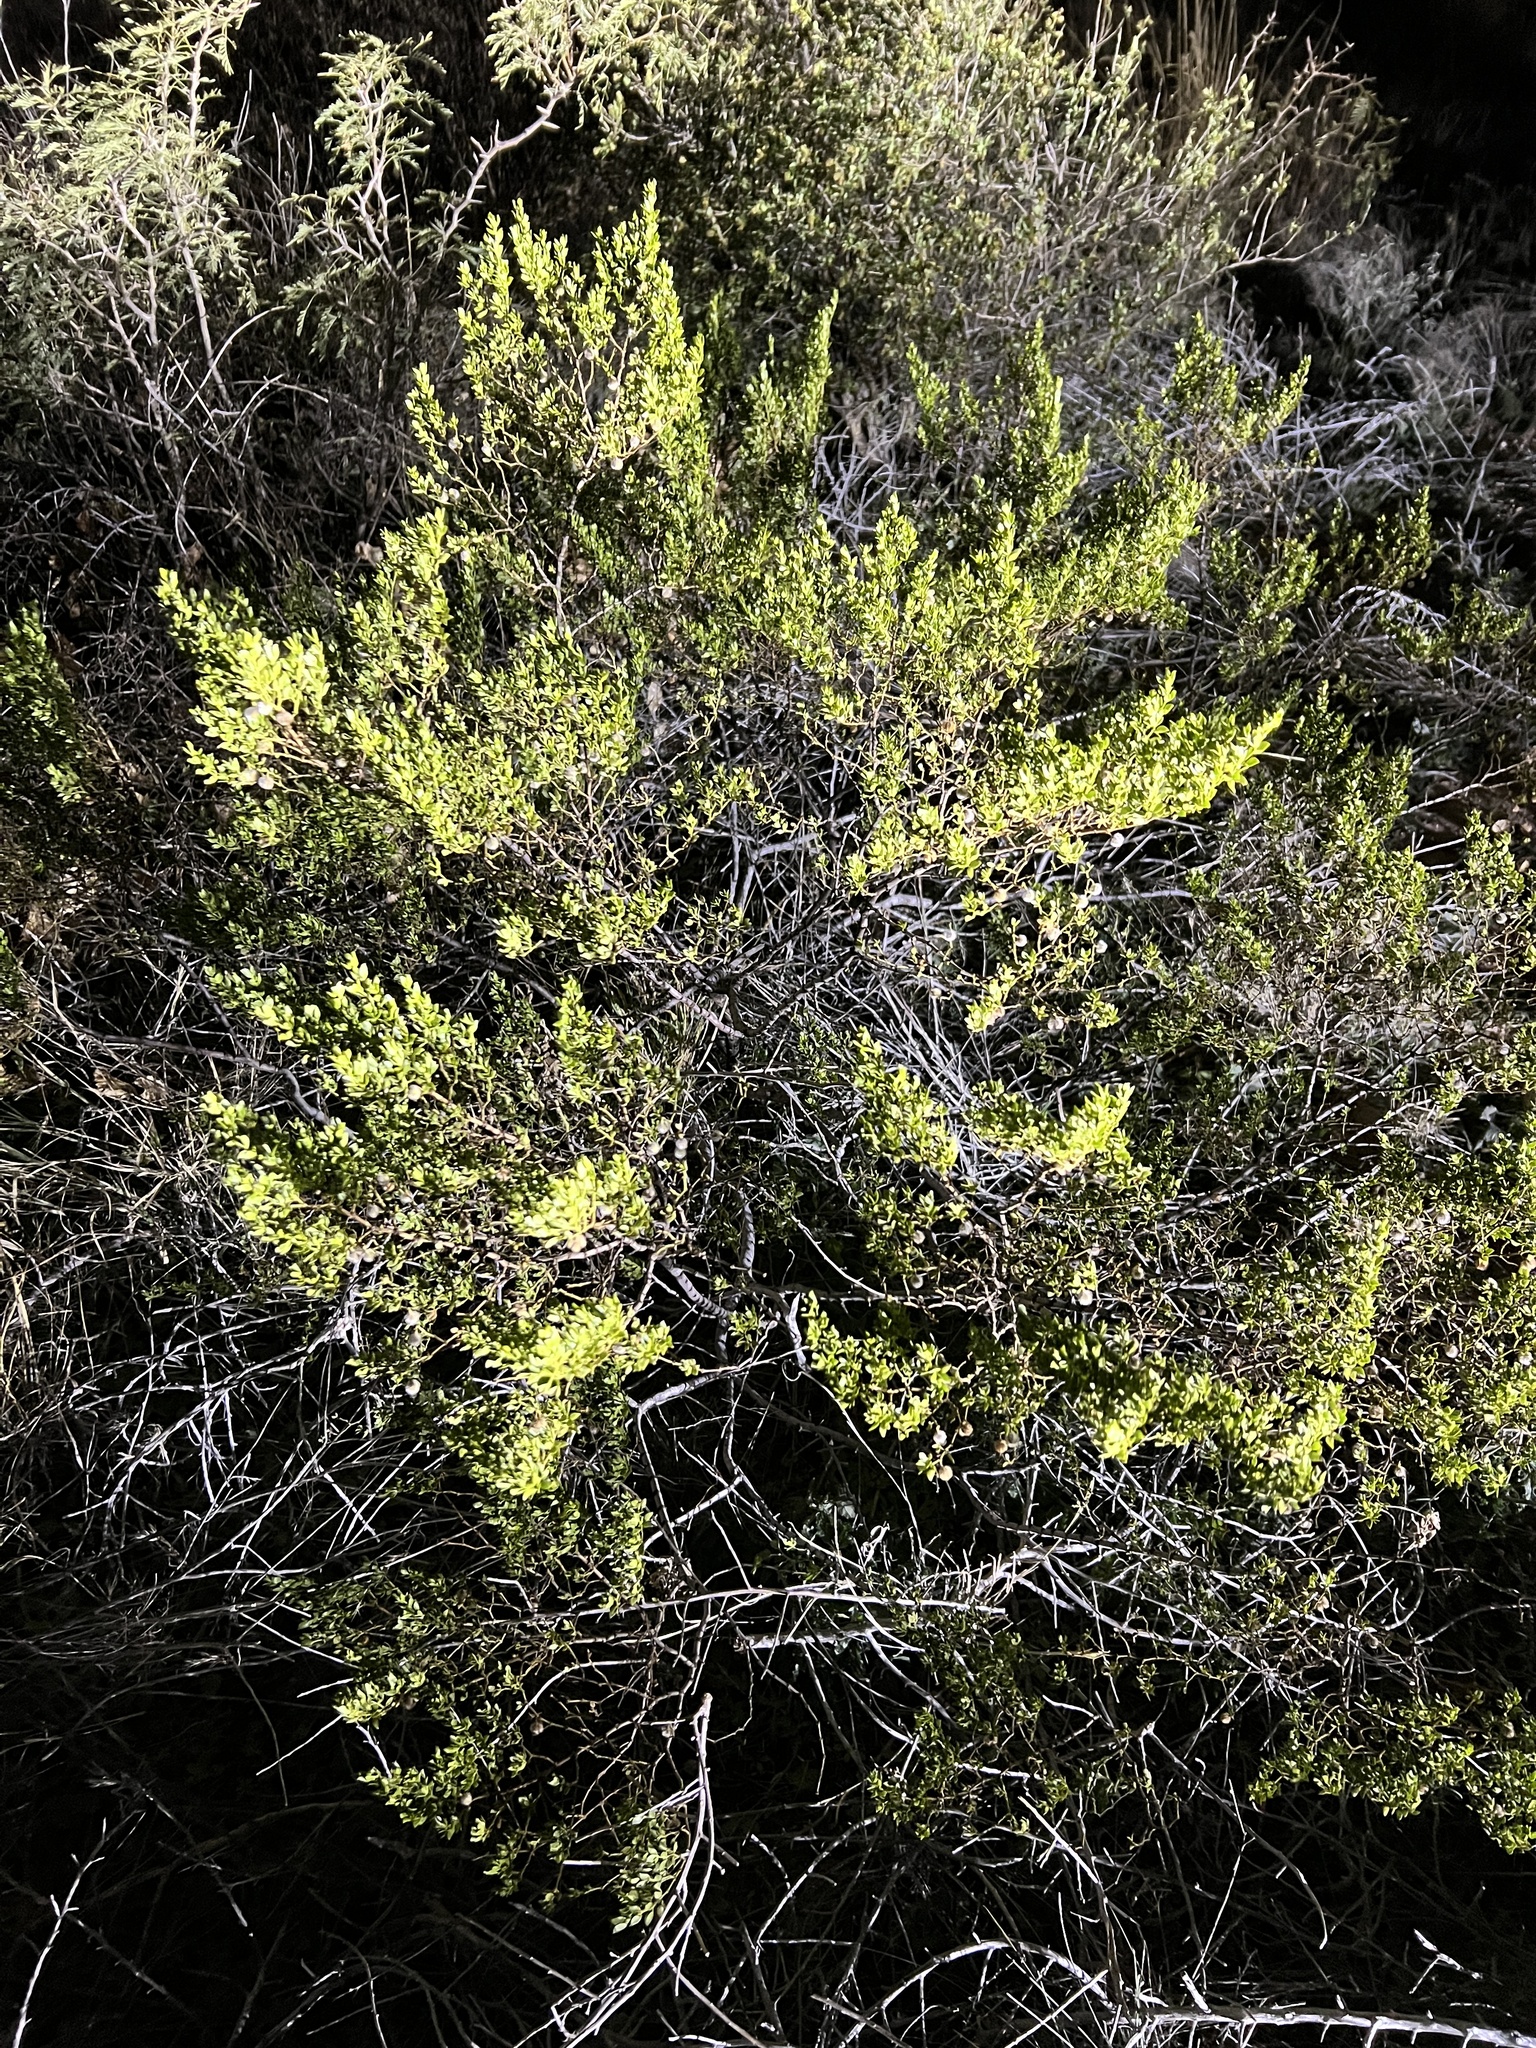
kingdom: Plantae
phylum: Tracheophyta
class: Magnoliopsida
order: Zygophyllales
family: Zygophyllaceae
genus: Larrea
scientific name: Larrea tridentata
